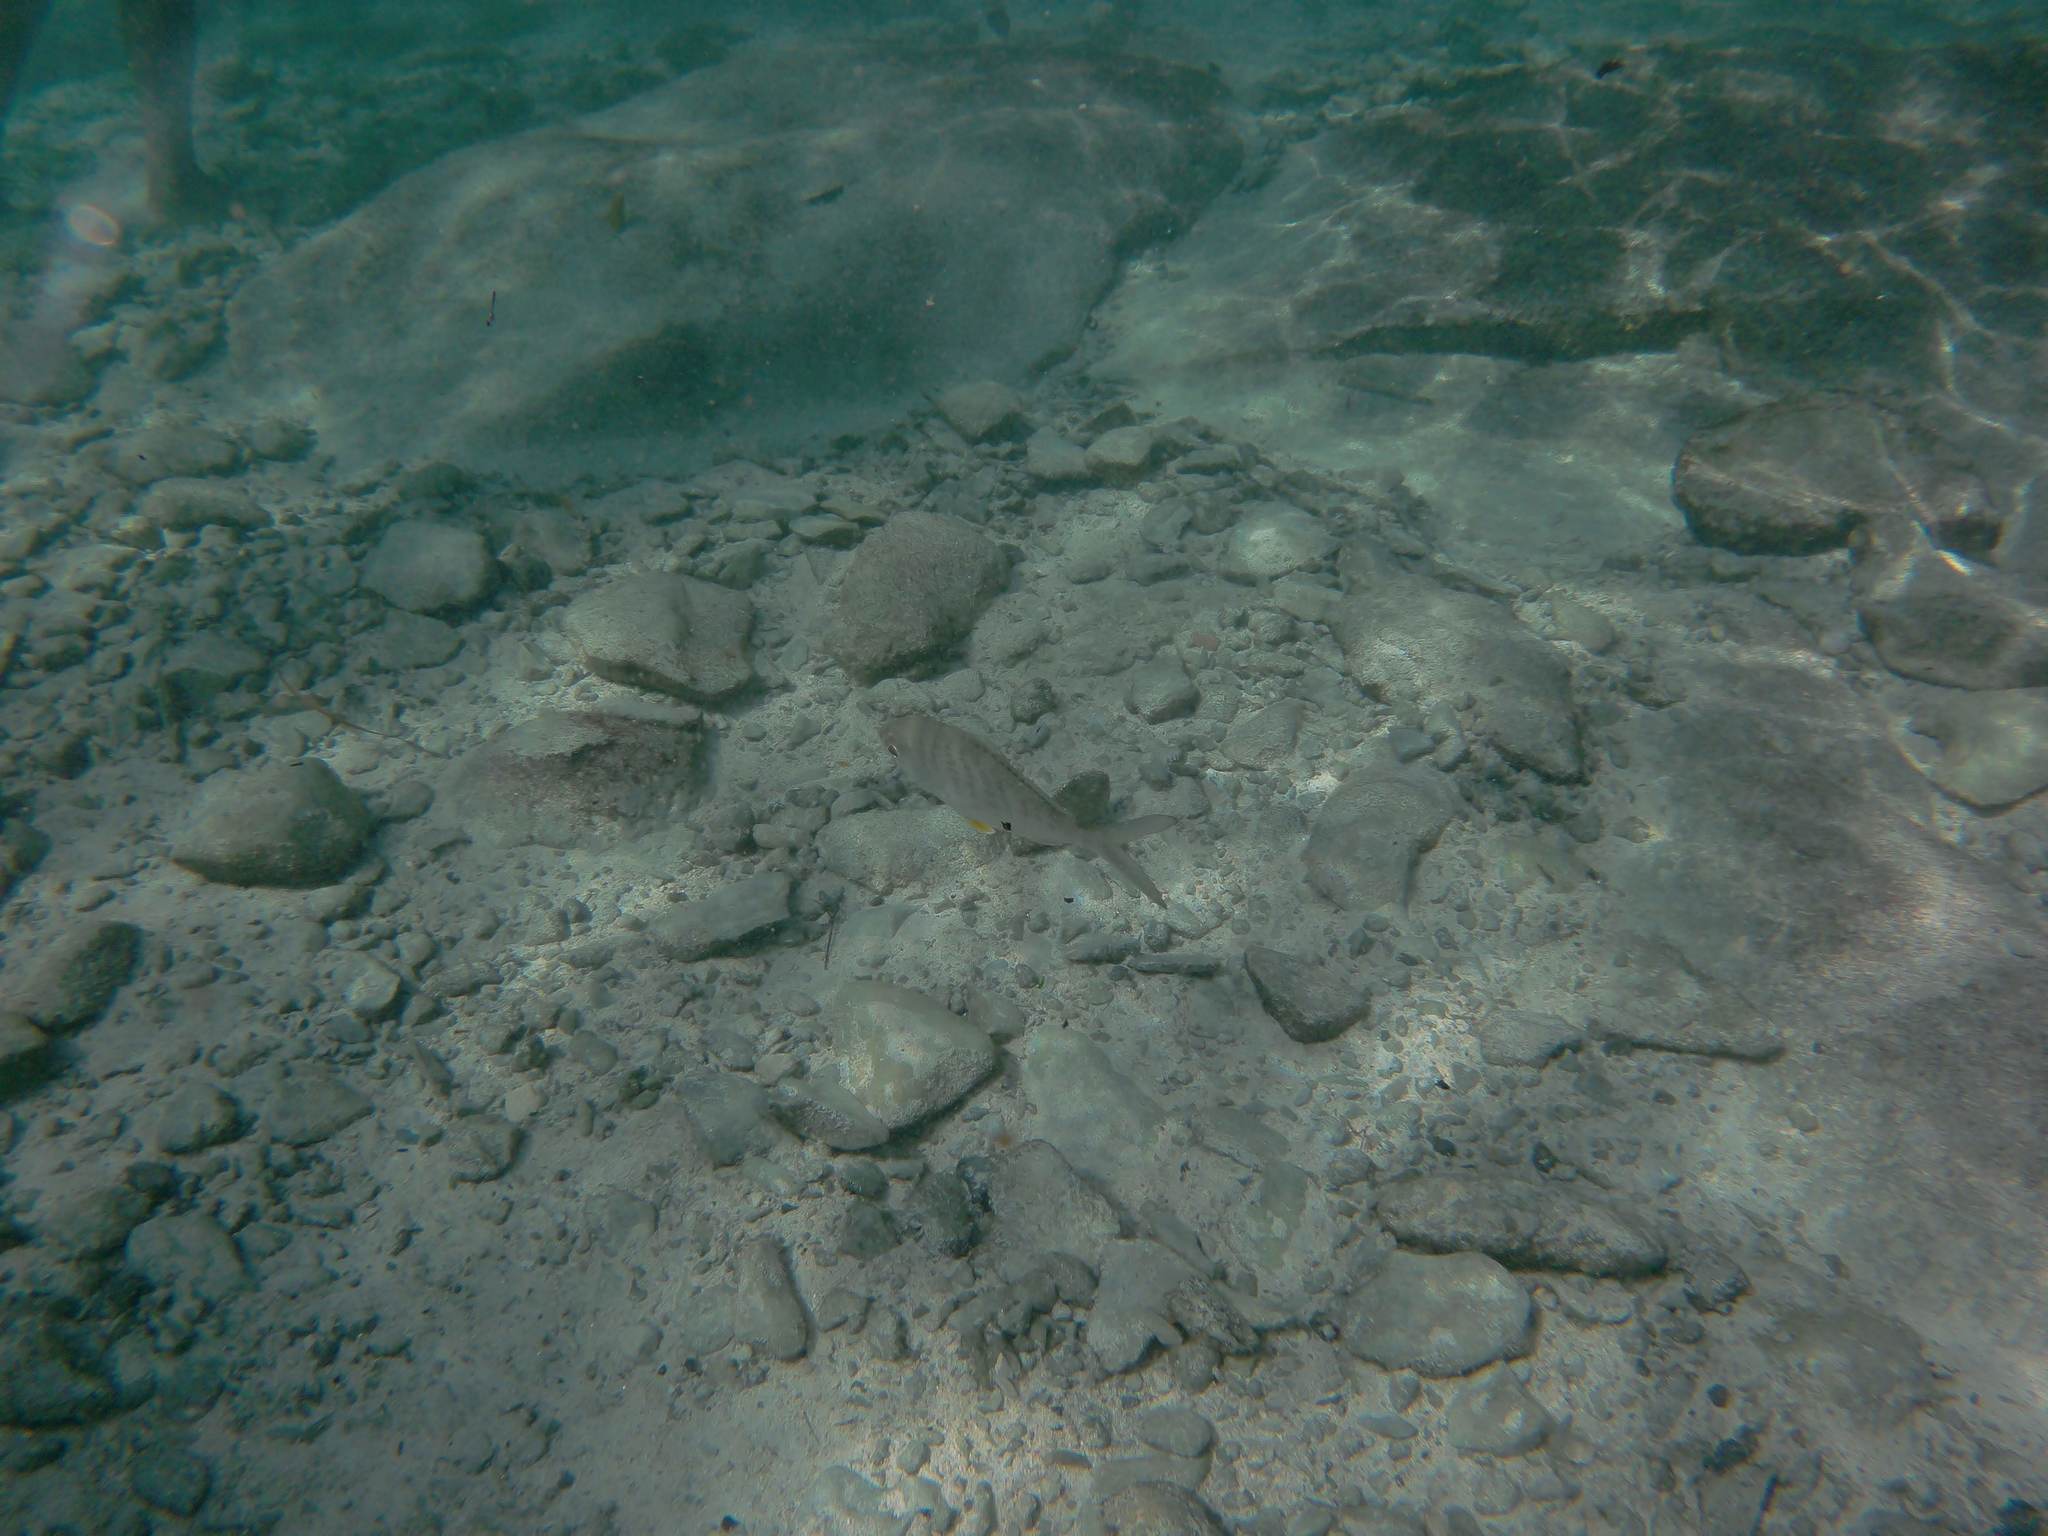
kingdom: Animalia
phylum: Chordata
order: Perciformes
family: Gerreidae
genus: Gerres
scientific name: Gerres cinereus
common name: Hedow
